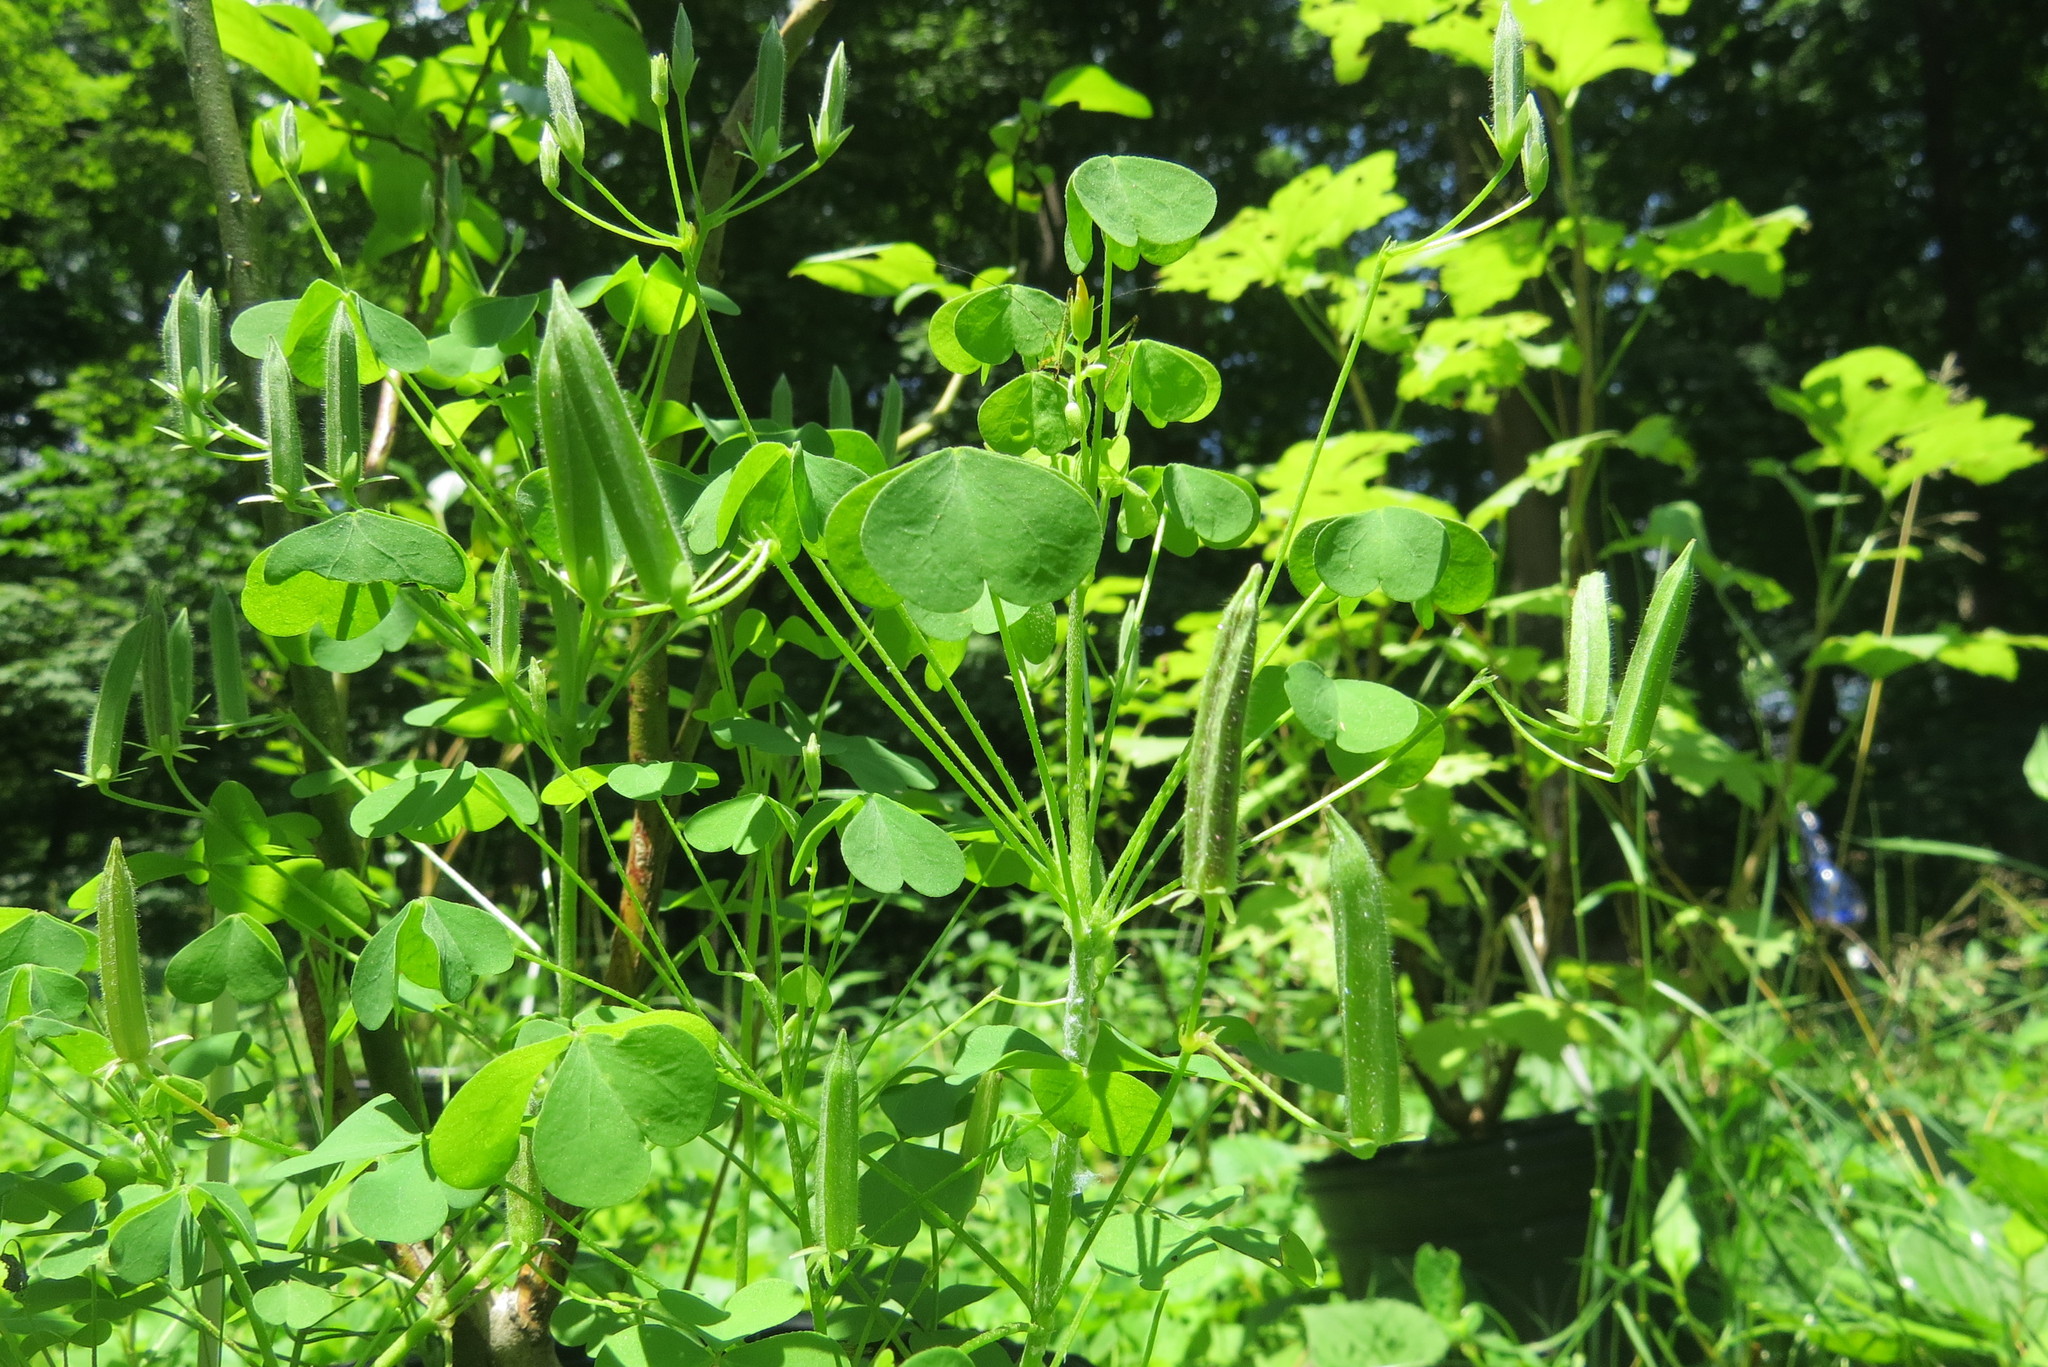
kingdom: Plantae
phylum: Tracheophyta
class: Magnoliopsida
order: Oxalidales
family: Oxalidaceae
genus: Oxalis
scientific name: Oxalis dillenii
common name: Sussex yellow-sorrel
